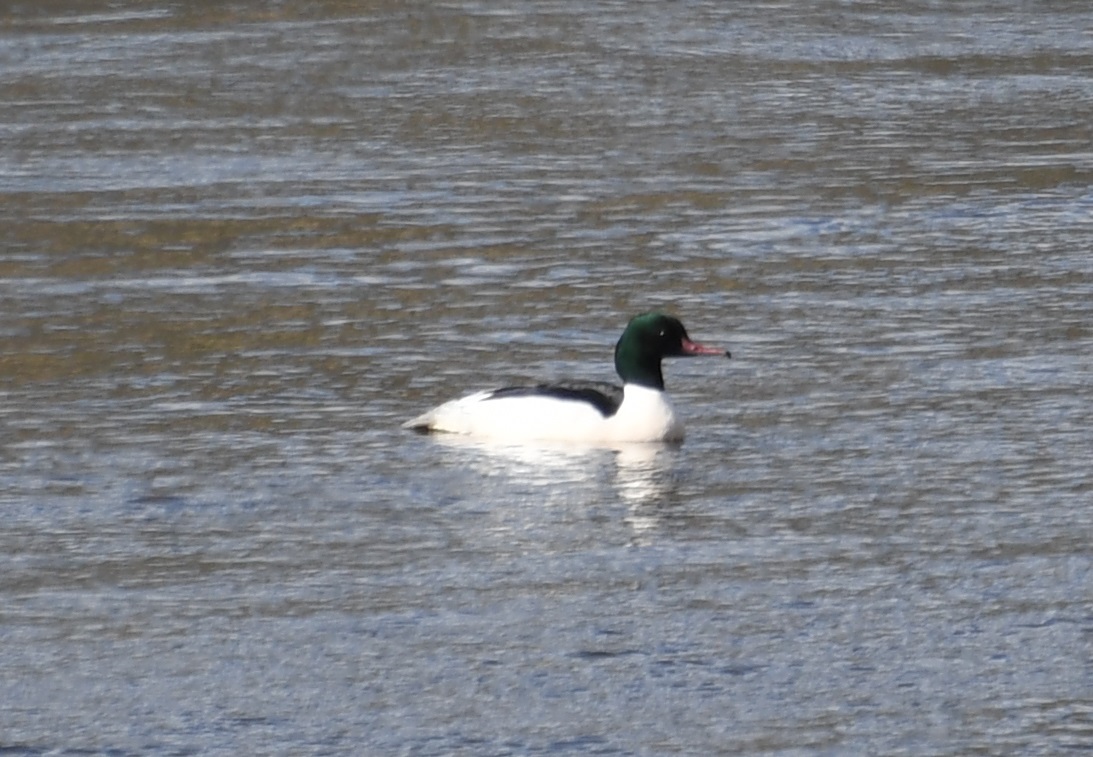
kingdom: Animalia
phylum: Chordata
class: Aves
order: Anseriformes
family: Anatidae
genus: Mergus
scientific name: Mergus merganser
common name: Common merganser
